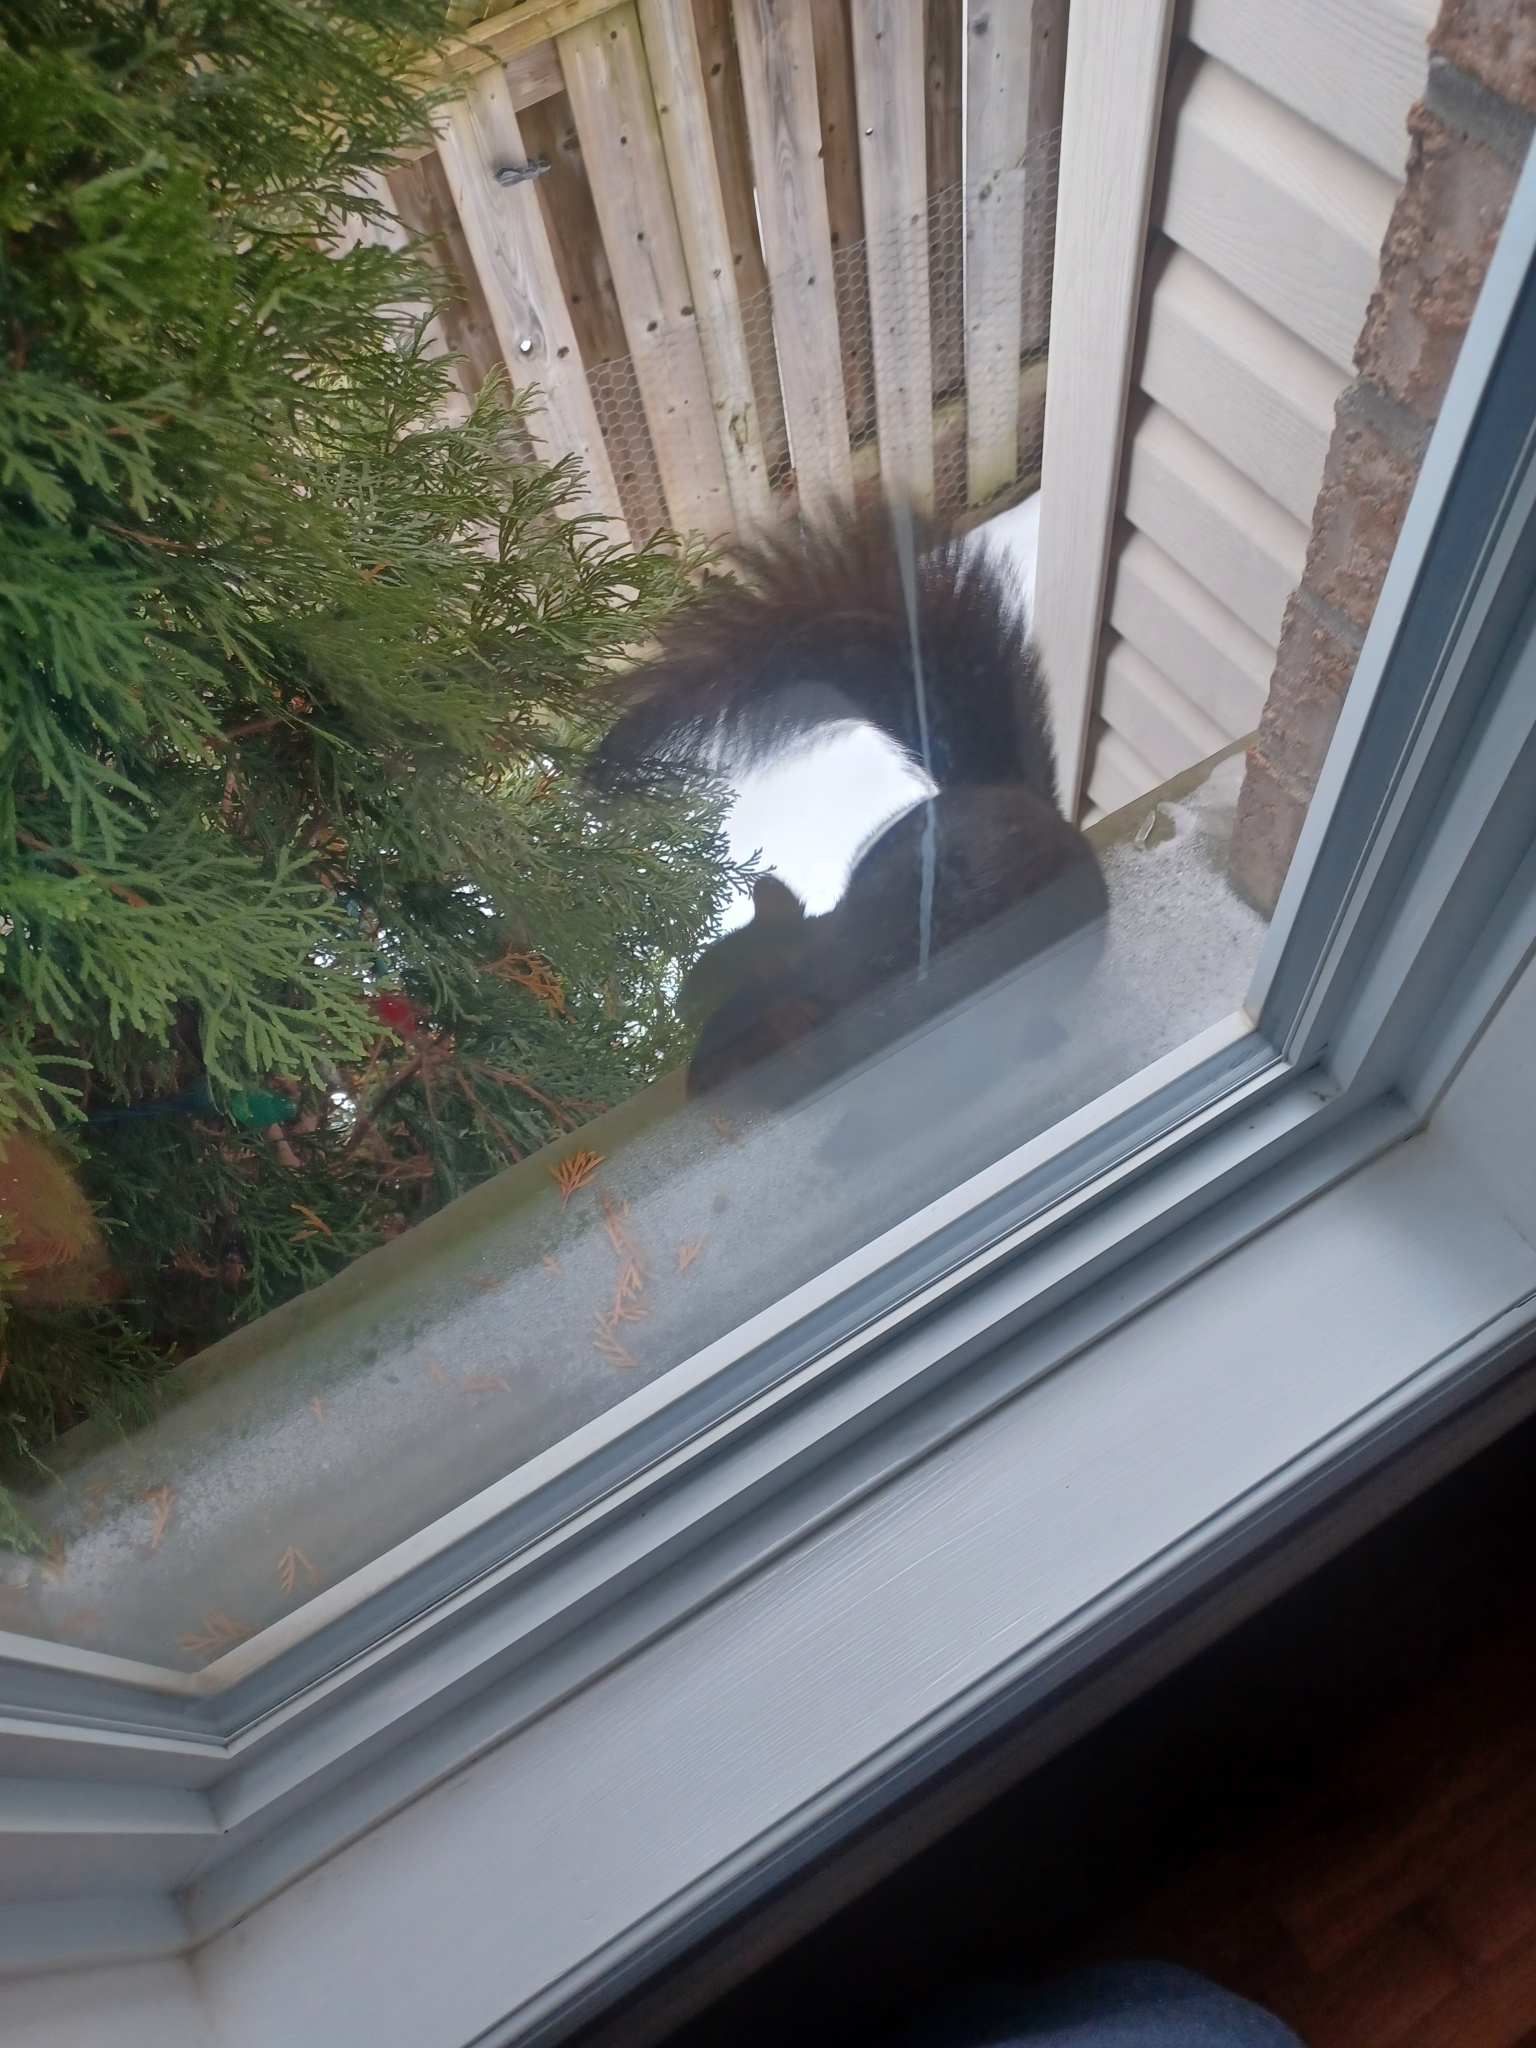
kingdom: Animalia
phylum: Chordata
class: Mammalia
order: Rodentia
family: Sciuridae
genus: Sciurus
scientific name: Sciurus carolinensis
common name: Eastern gray squirrel
